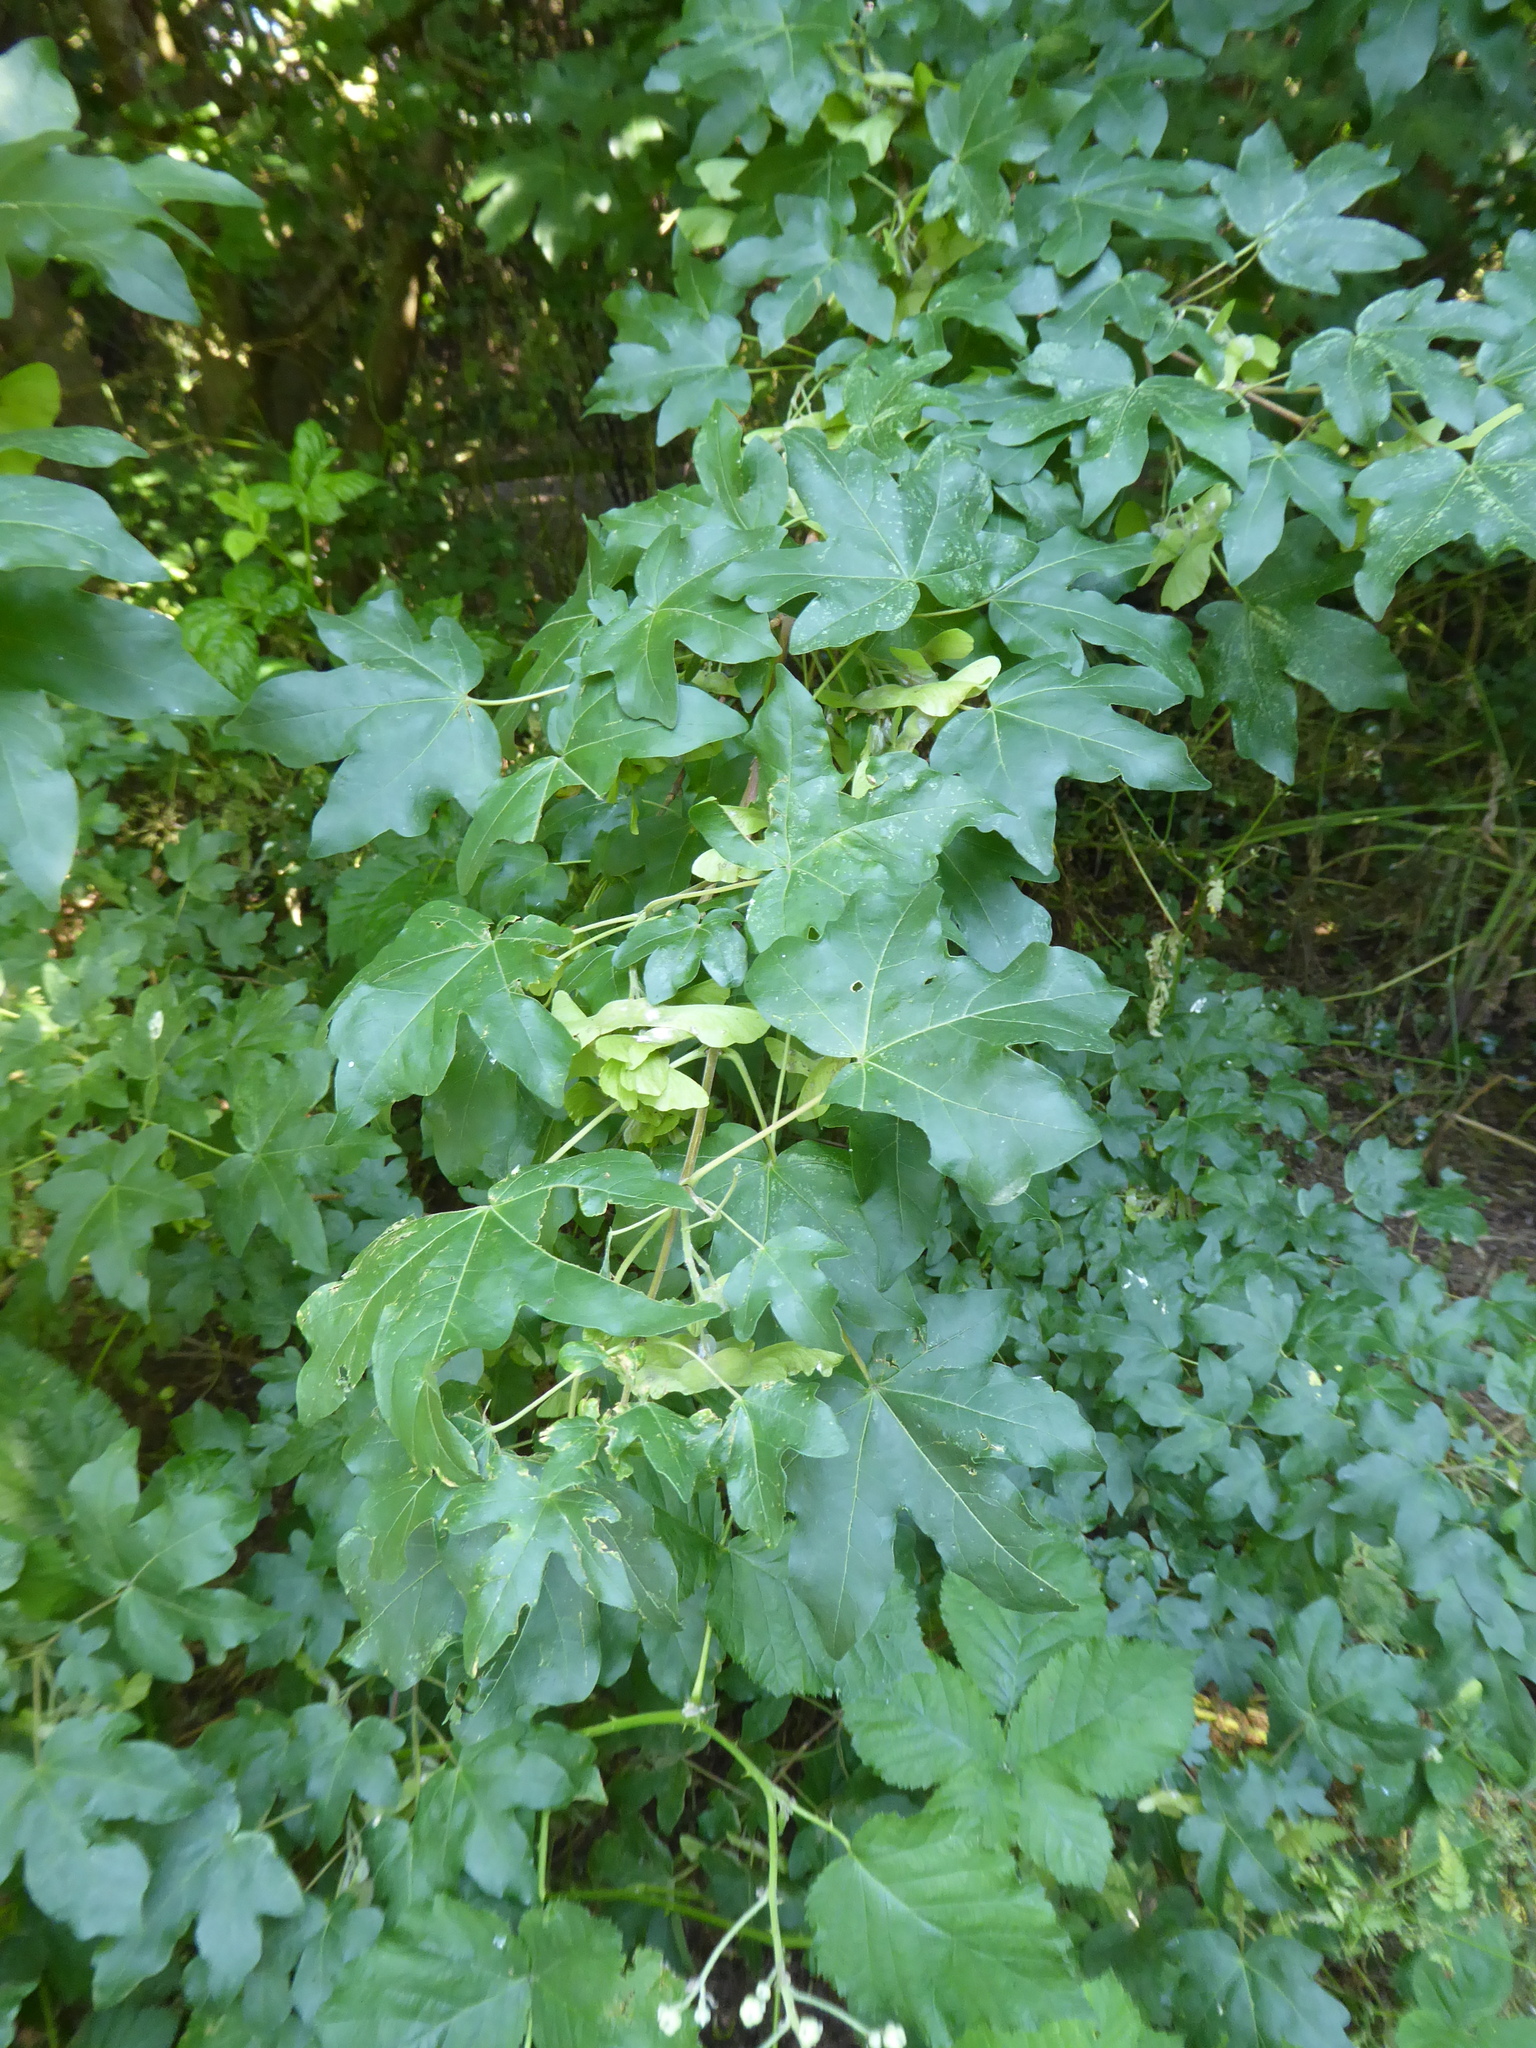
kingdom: Plantae
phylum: Tracheophyta
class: Magnoliopsida
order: Sapindales
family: Sapindaceae
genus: Acer
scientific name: Acer campestre
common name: Field maple
